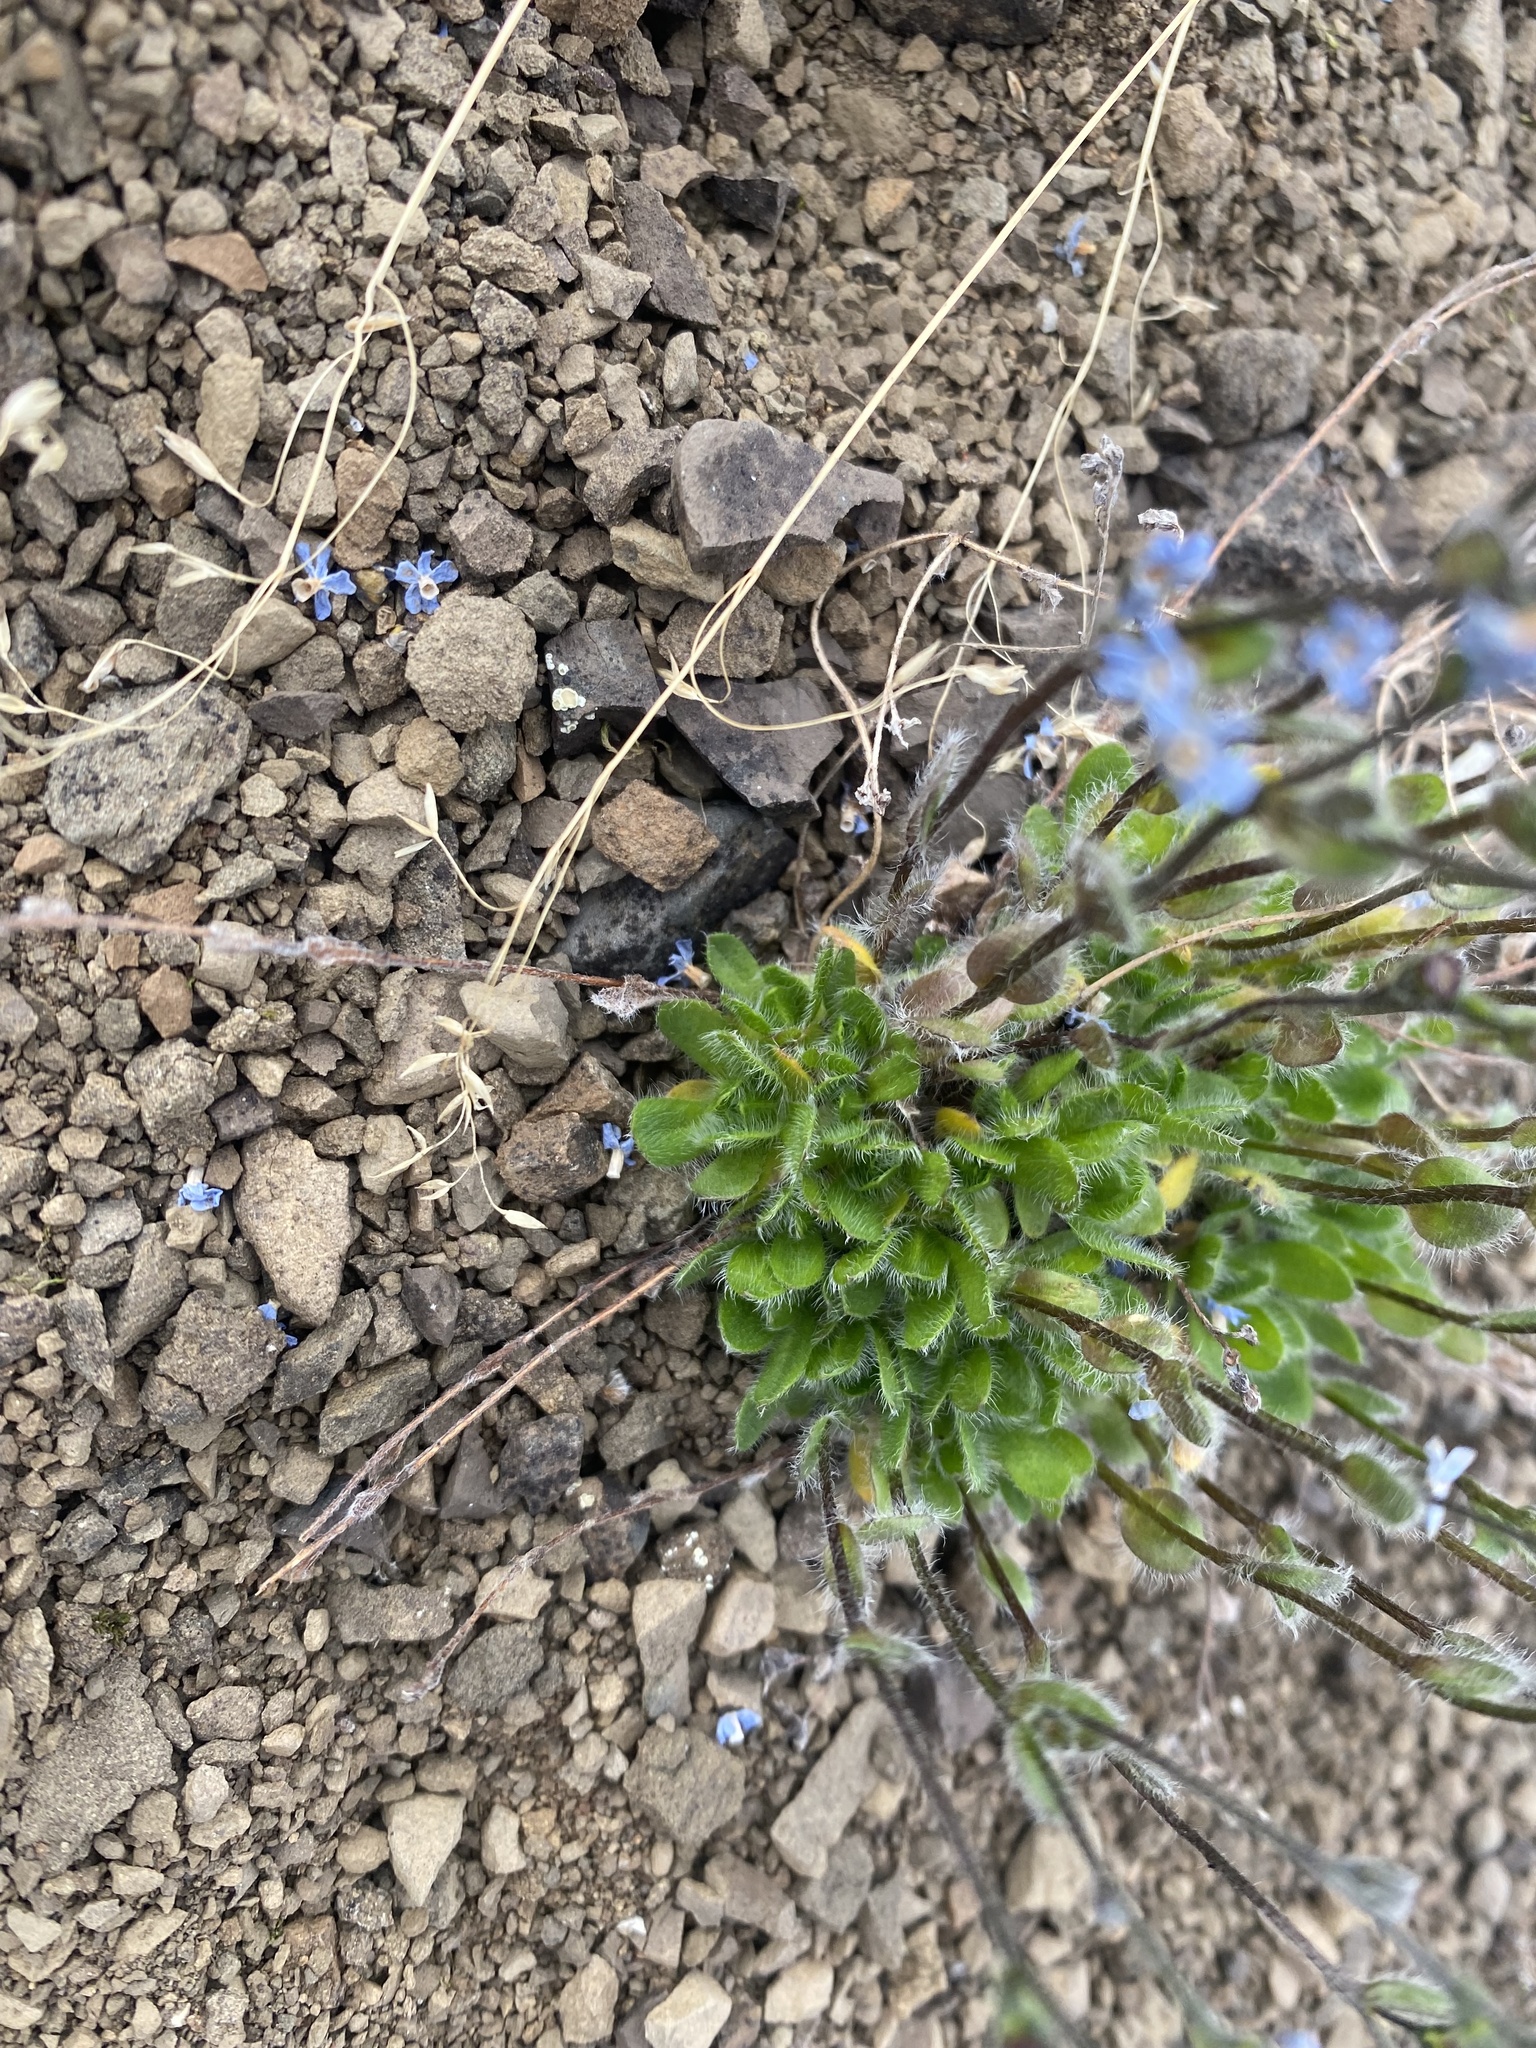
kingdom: Plantae
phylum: Tracheophyta
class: Magnoliopsida
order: Boraginales
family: Boraginaceae
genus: Eritrichium
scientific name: Eritrichium villosum
